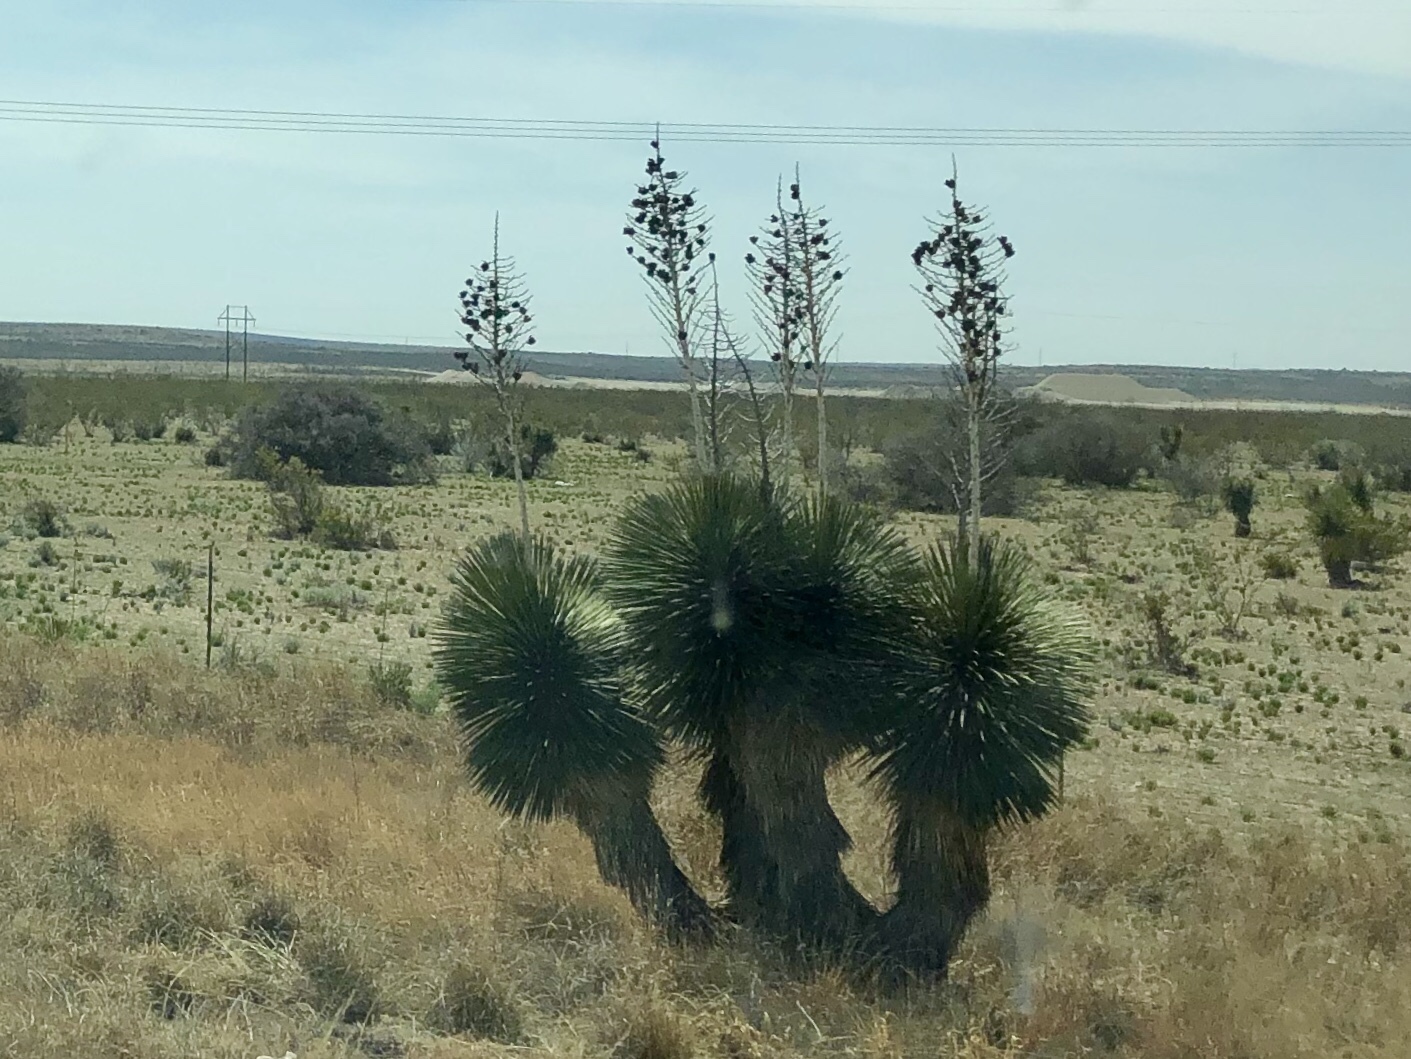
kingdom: Plantae
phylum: Tracheophyta
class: Liliopsida
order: Asparagales
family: Asparagaceae
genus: Yucca
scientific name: Yucca elata
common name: Palmella
